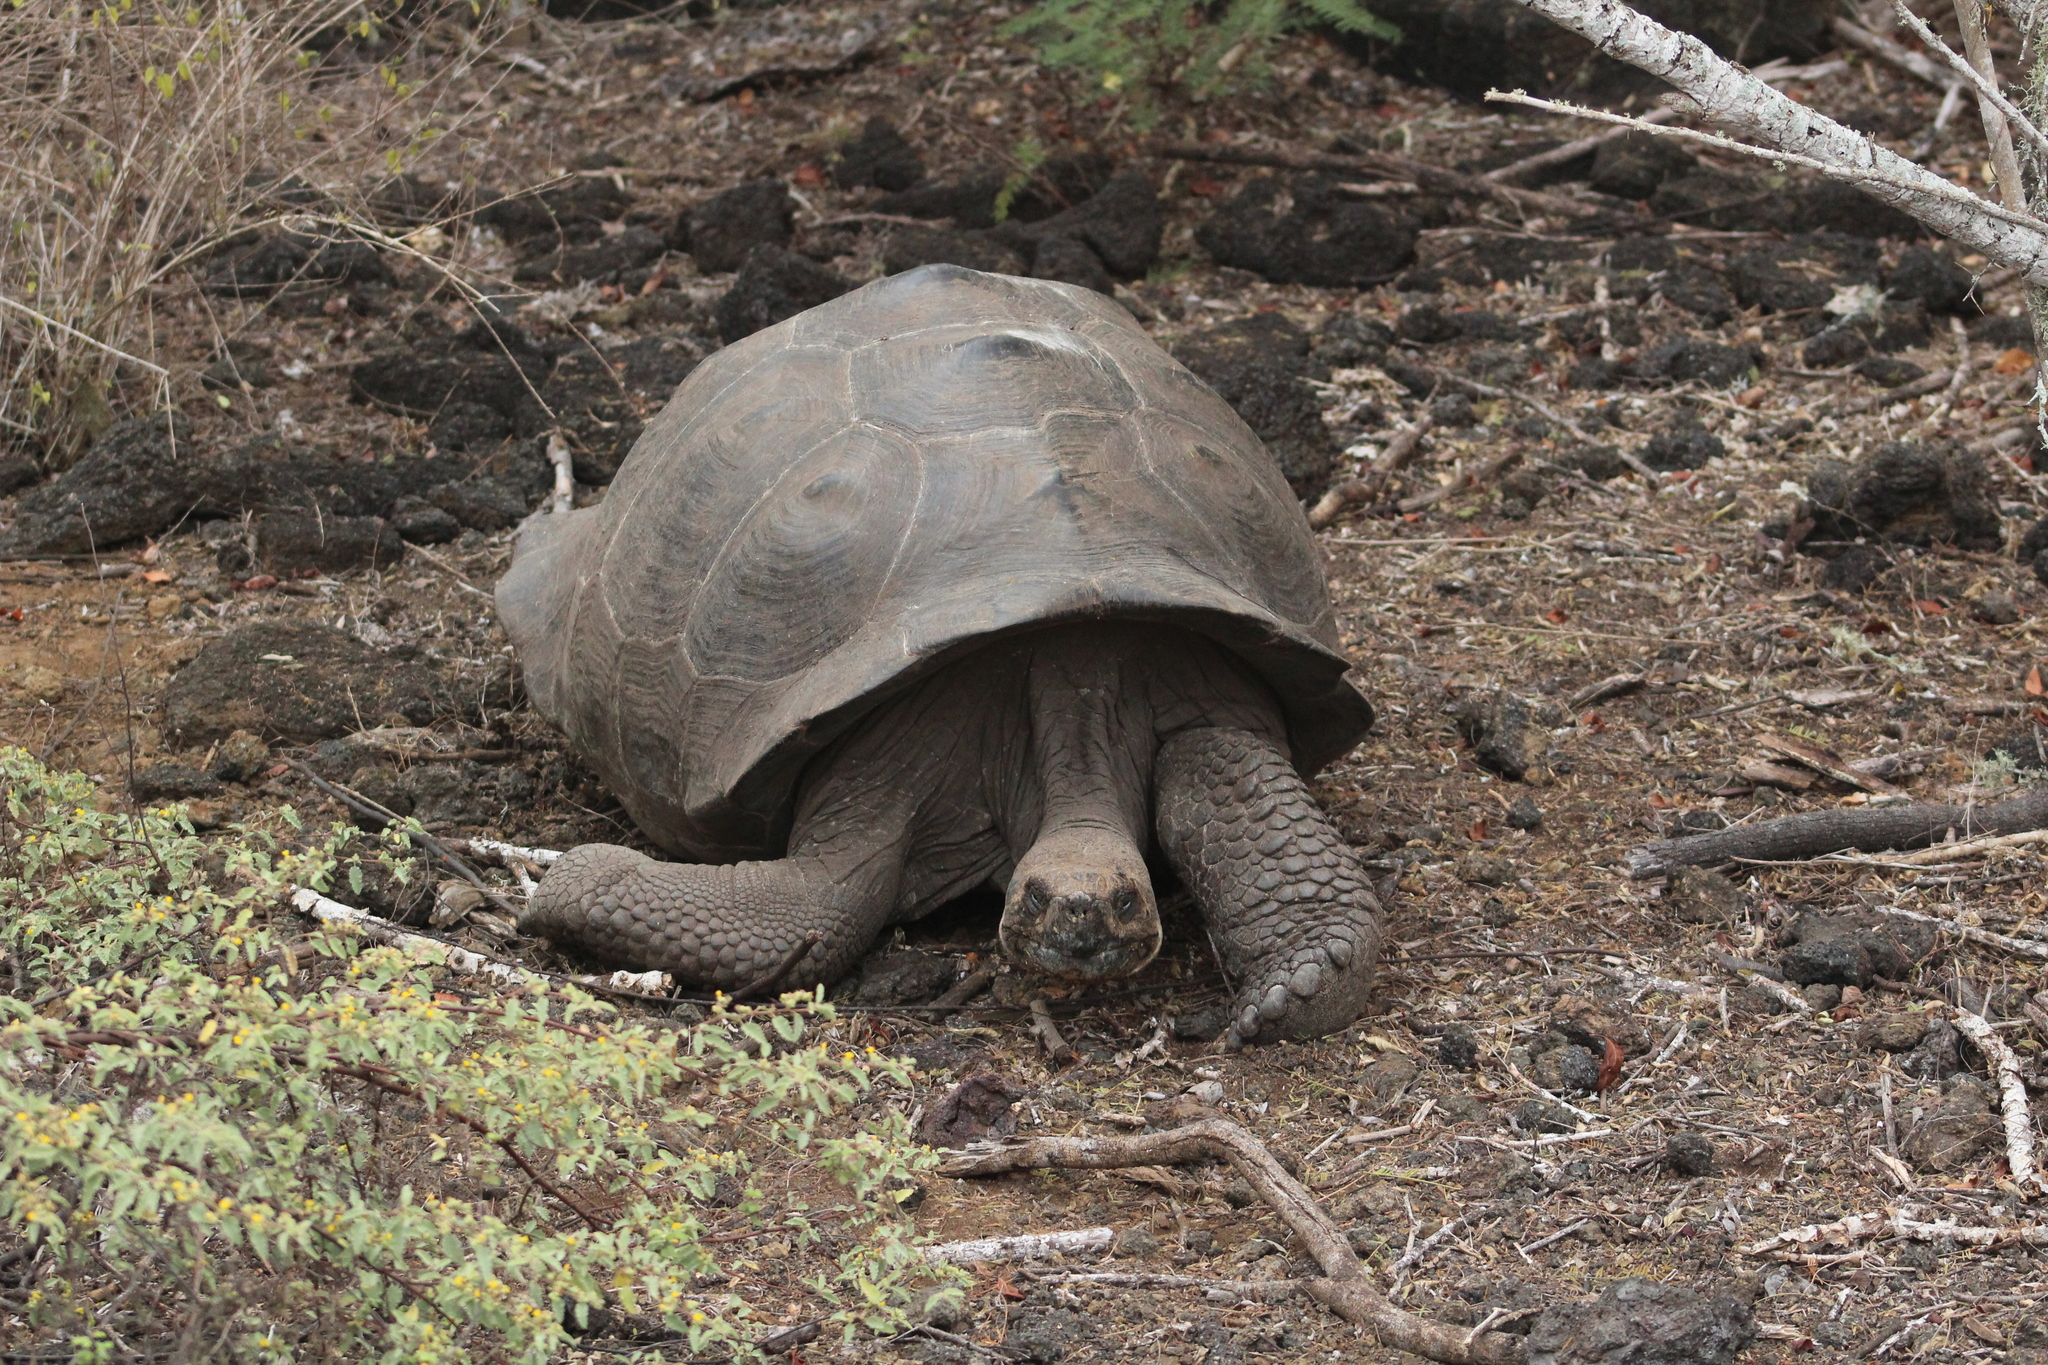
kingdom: Animalia
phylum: Chordata
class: Testudines
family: Testudinidae
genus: Chelonoidis
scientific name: Chelonoidis guntheri
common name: Sierra negra giant tortoise
